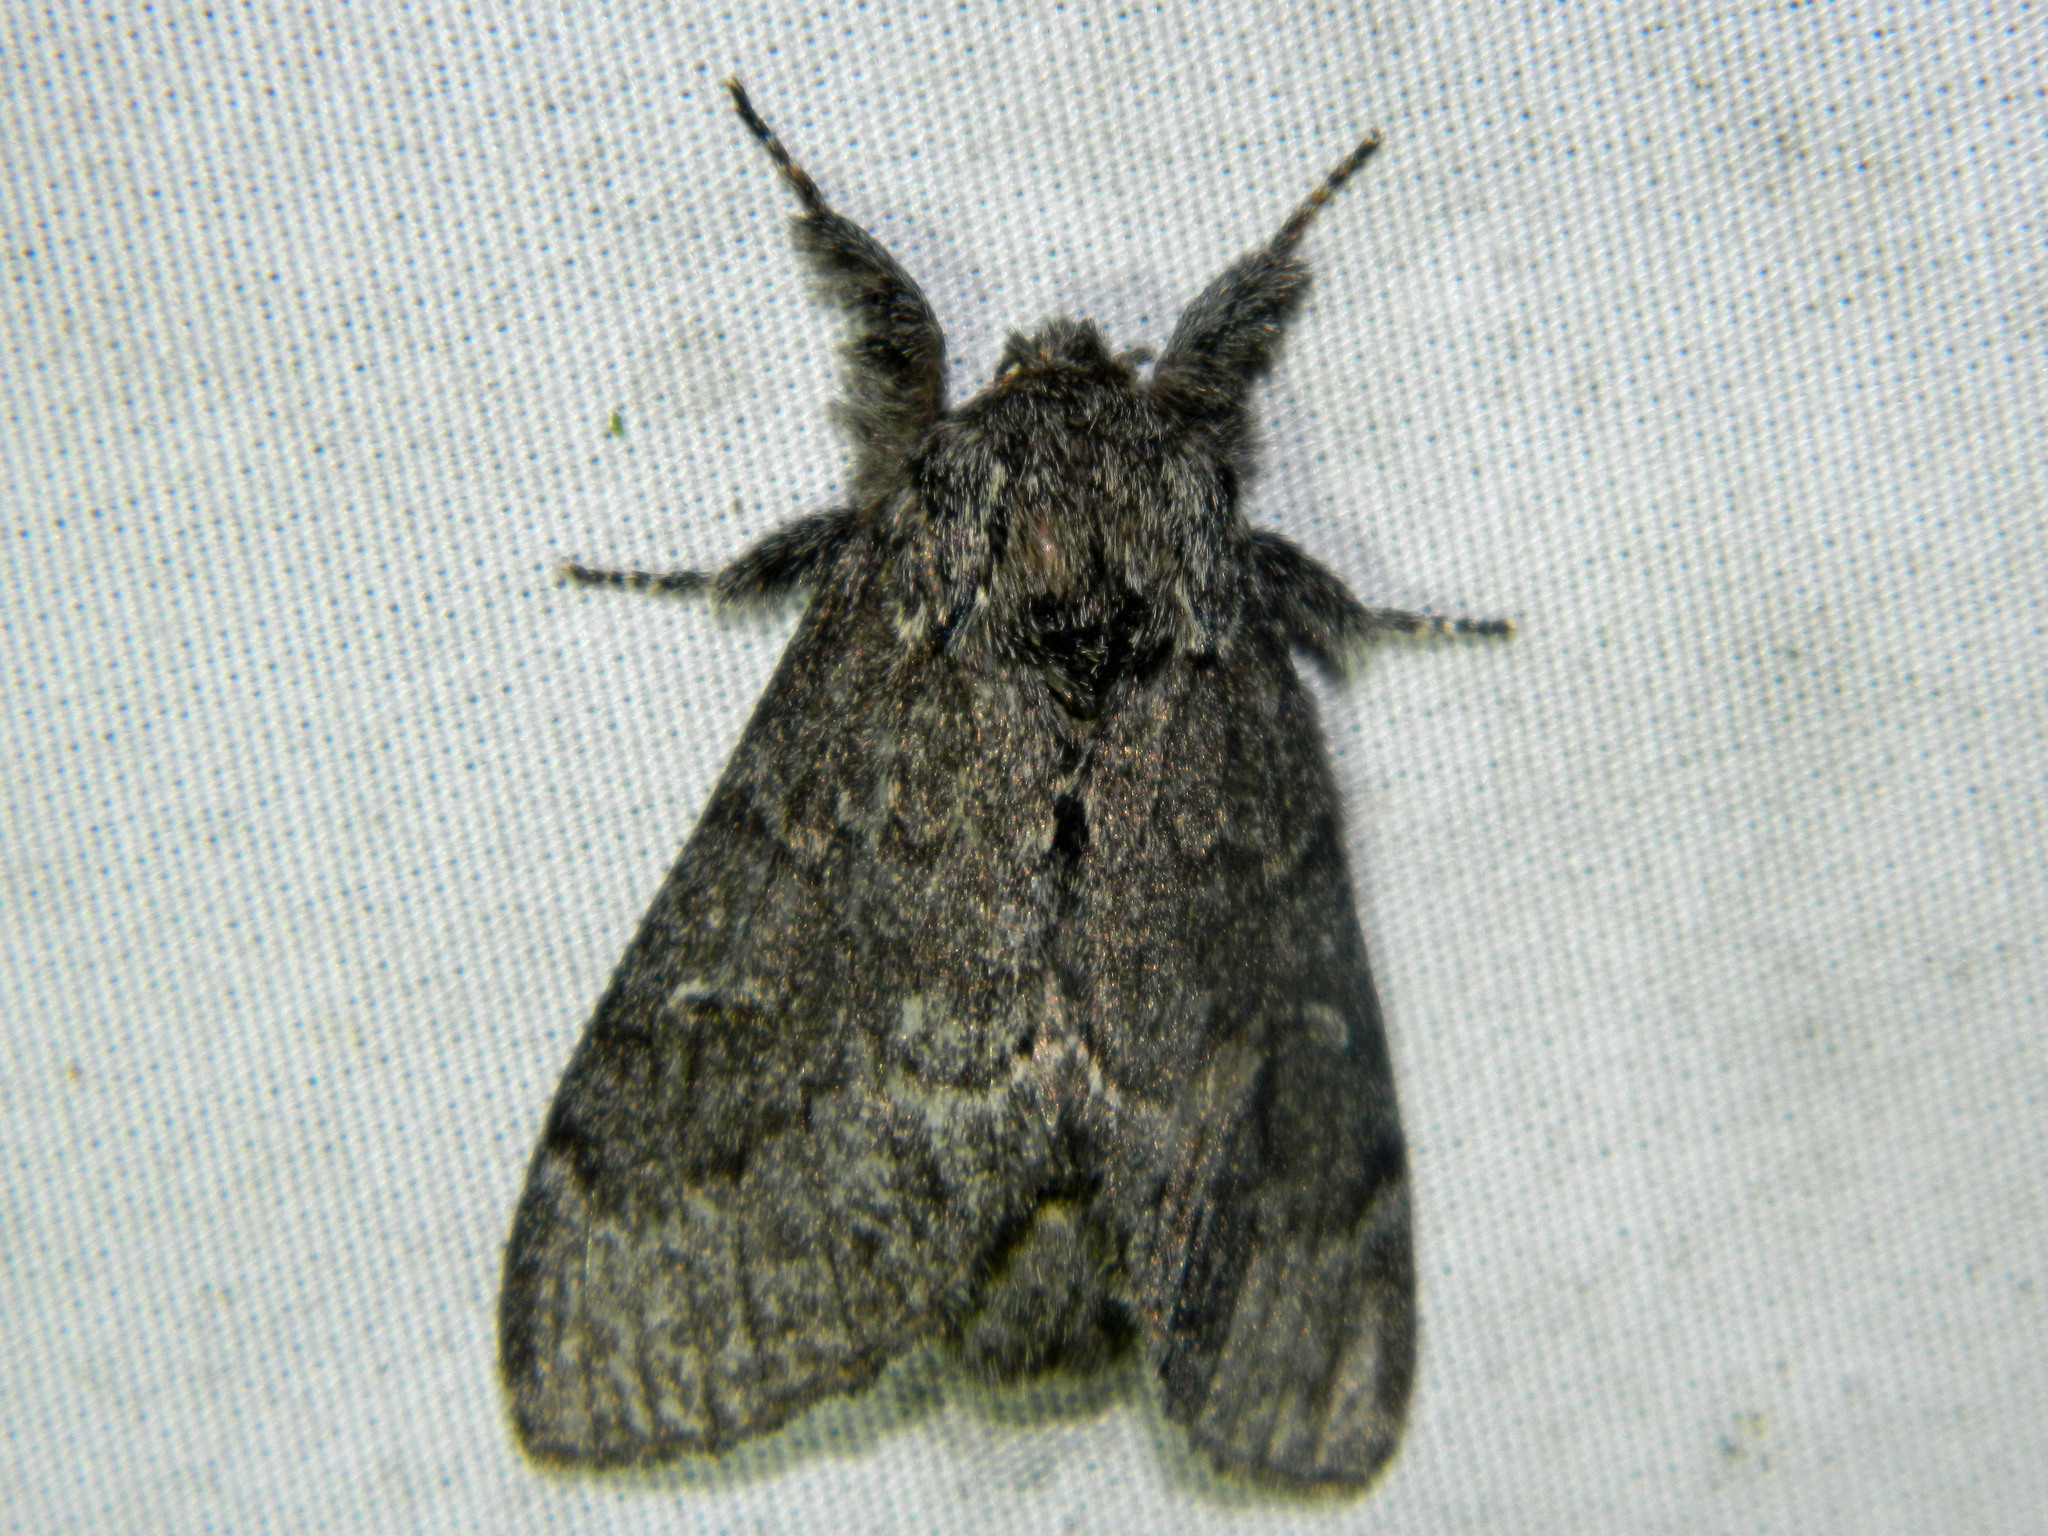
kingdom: Animalia
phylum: Arthropoda
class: Insecta
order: Lepidoptera
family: Notodontidae
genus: Notodonta
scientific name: Notodonta torva
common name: Large dark prominent
